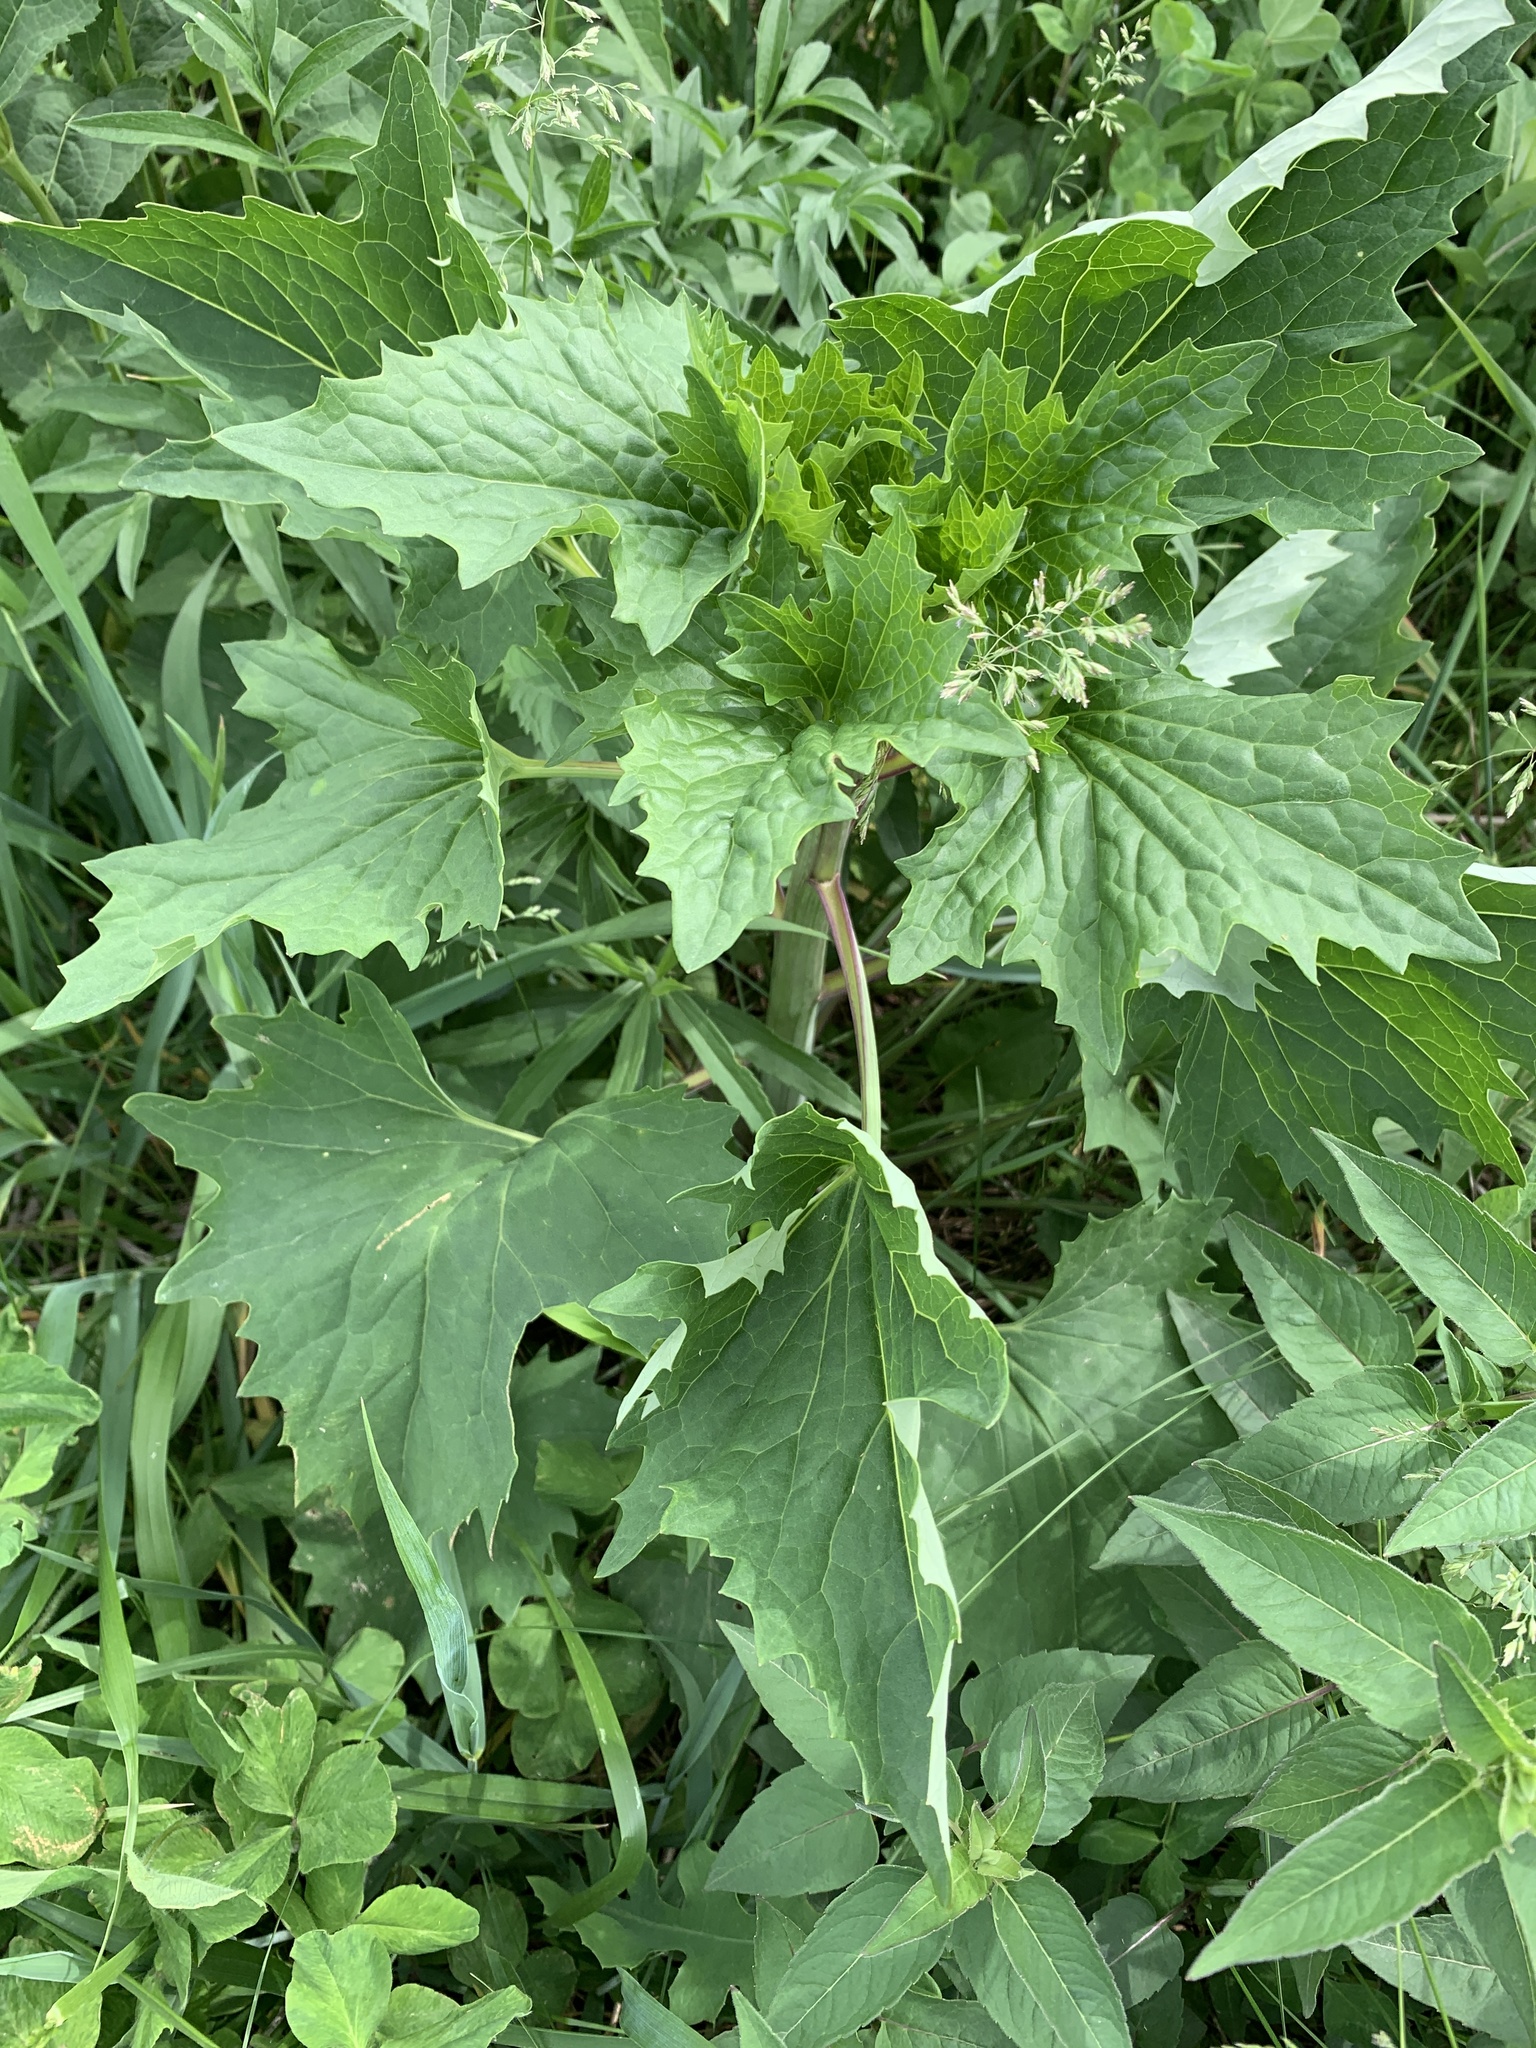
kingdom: Plantae
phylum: Tracheophyta
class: Magnoliopsida
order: Asterales
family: Asteraceae
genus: Arnoglossum
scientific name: Arnoglossum atriplicifolium
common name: Pale indian-plantain
